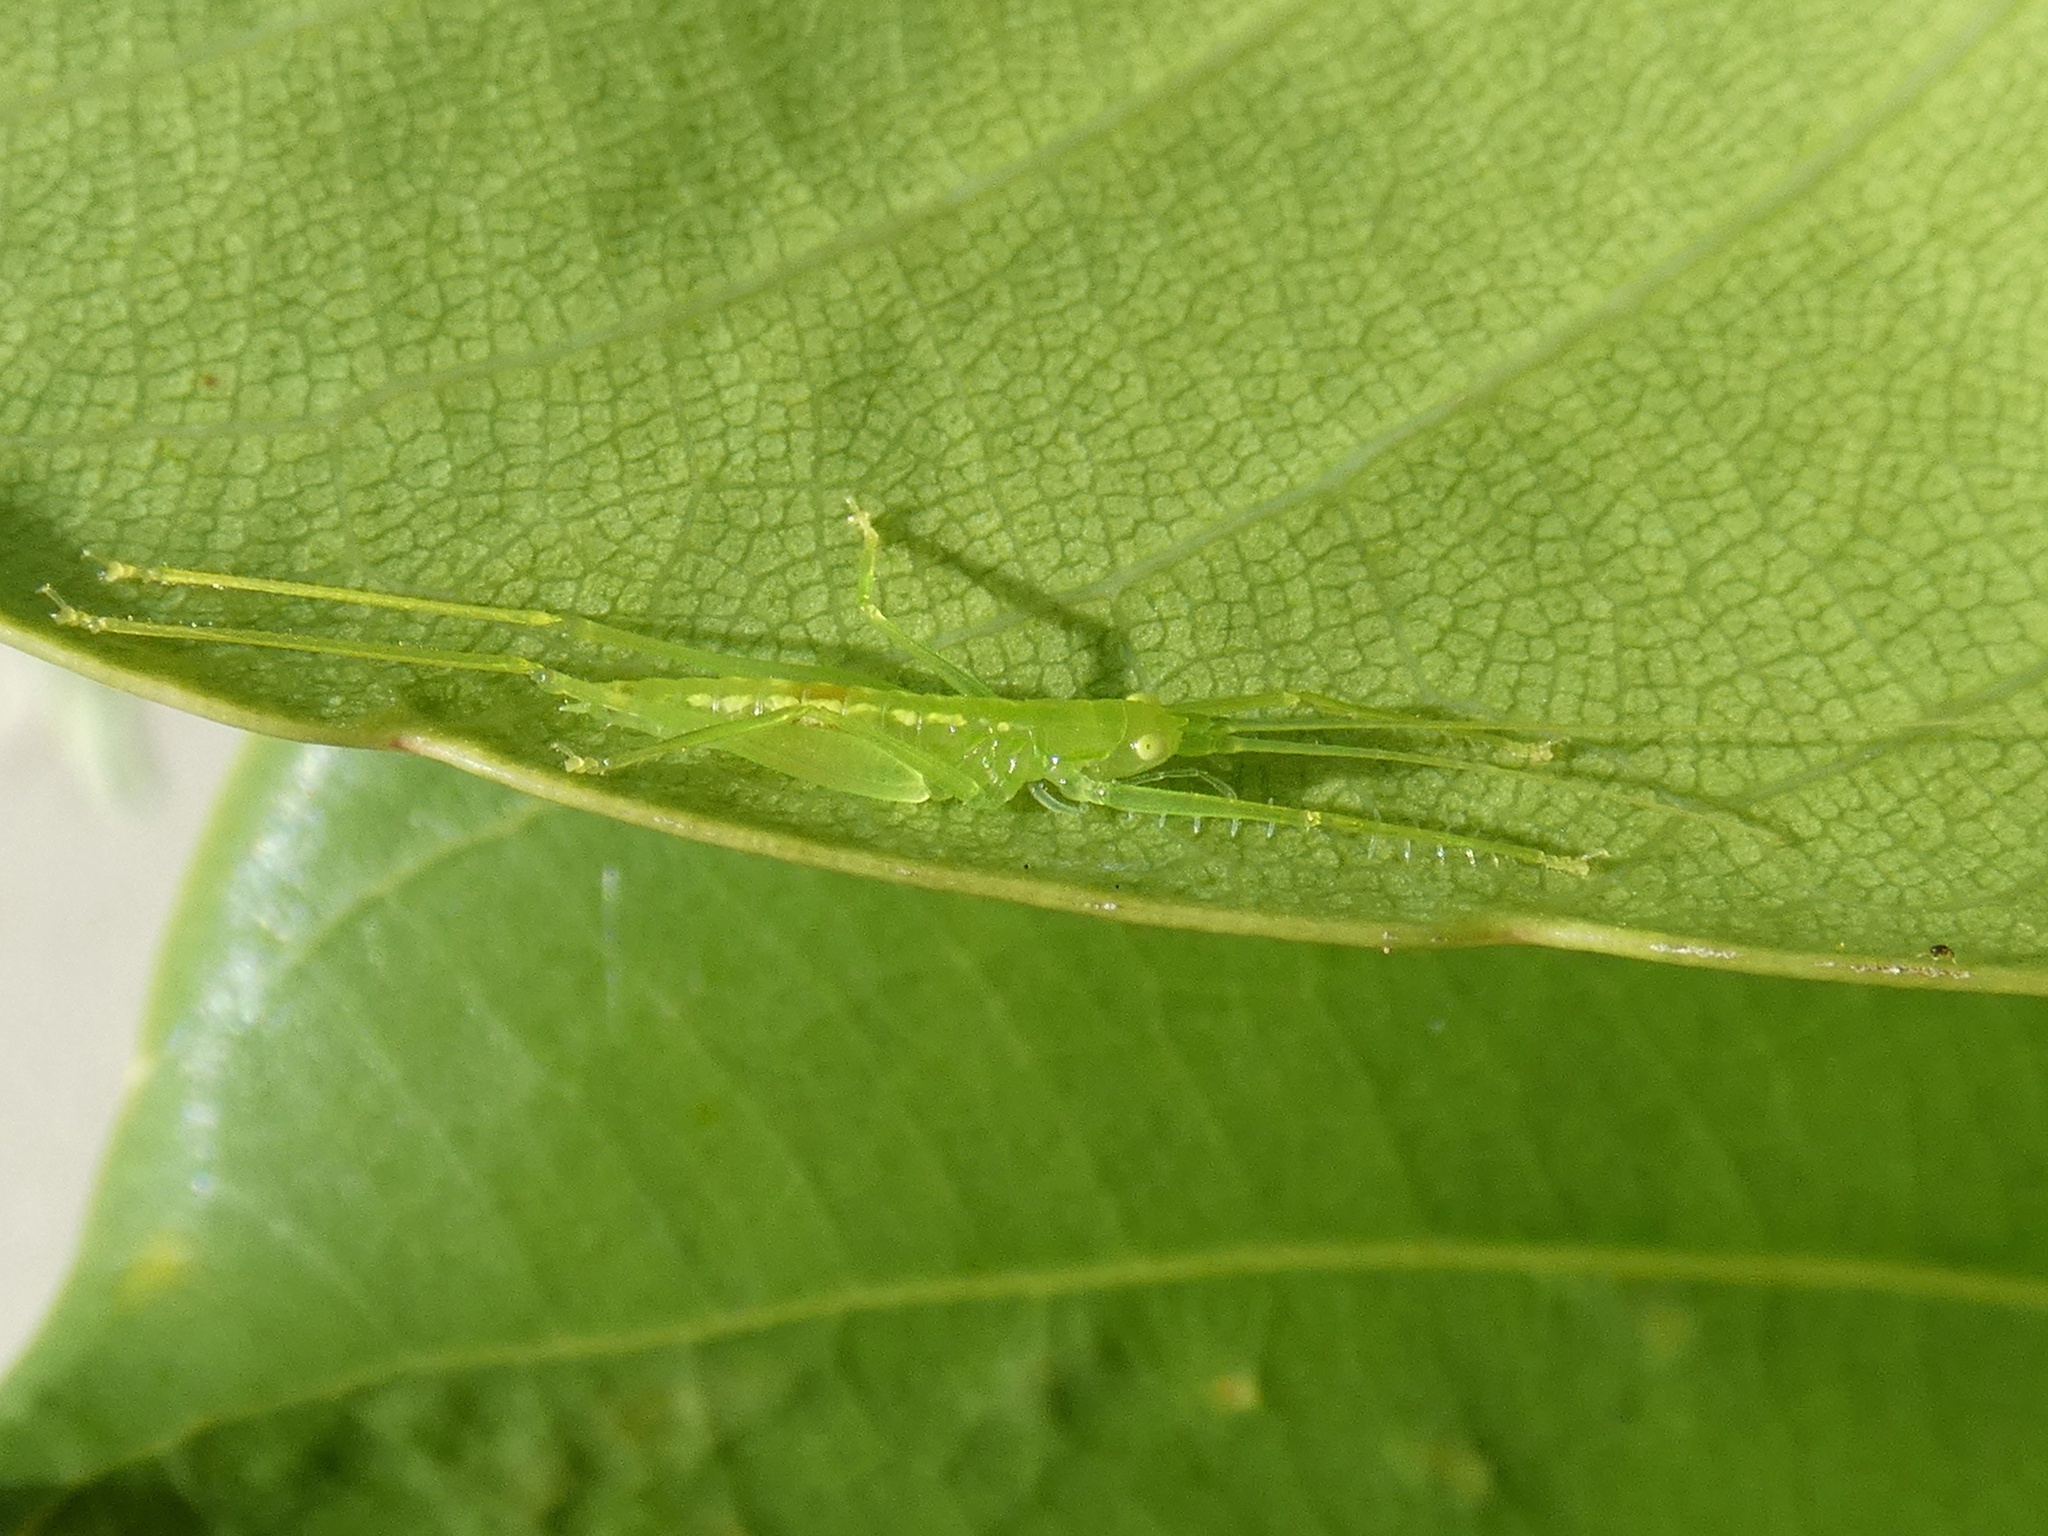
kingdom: Animalia
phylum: Arthropoda
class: Insecta
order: Orthoptera
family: Tettigoniidae
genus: Phisis
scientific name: Phisis jinae
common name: Jin's robust spider katydid
